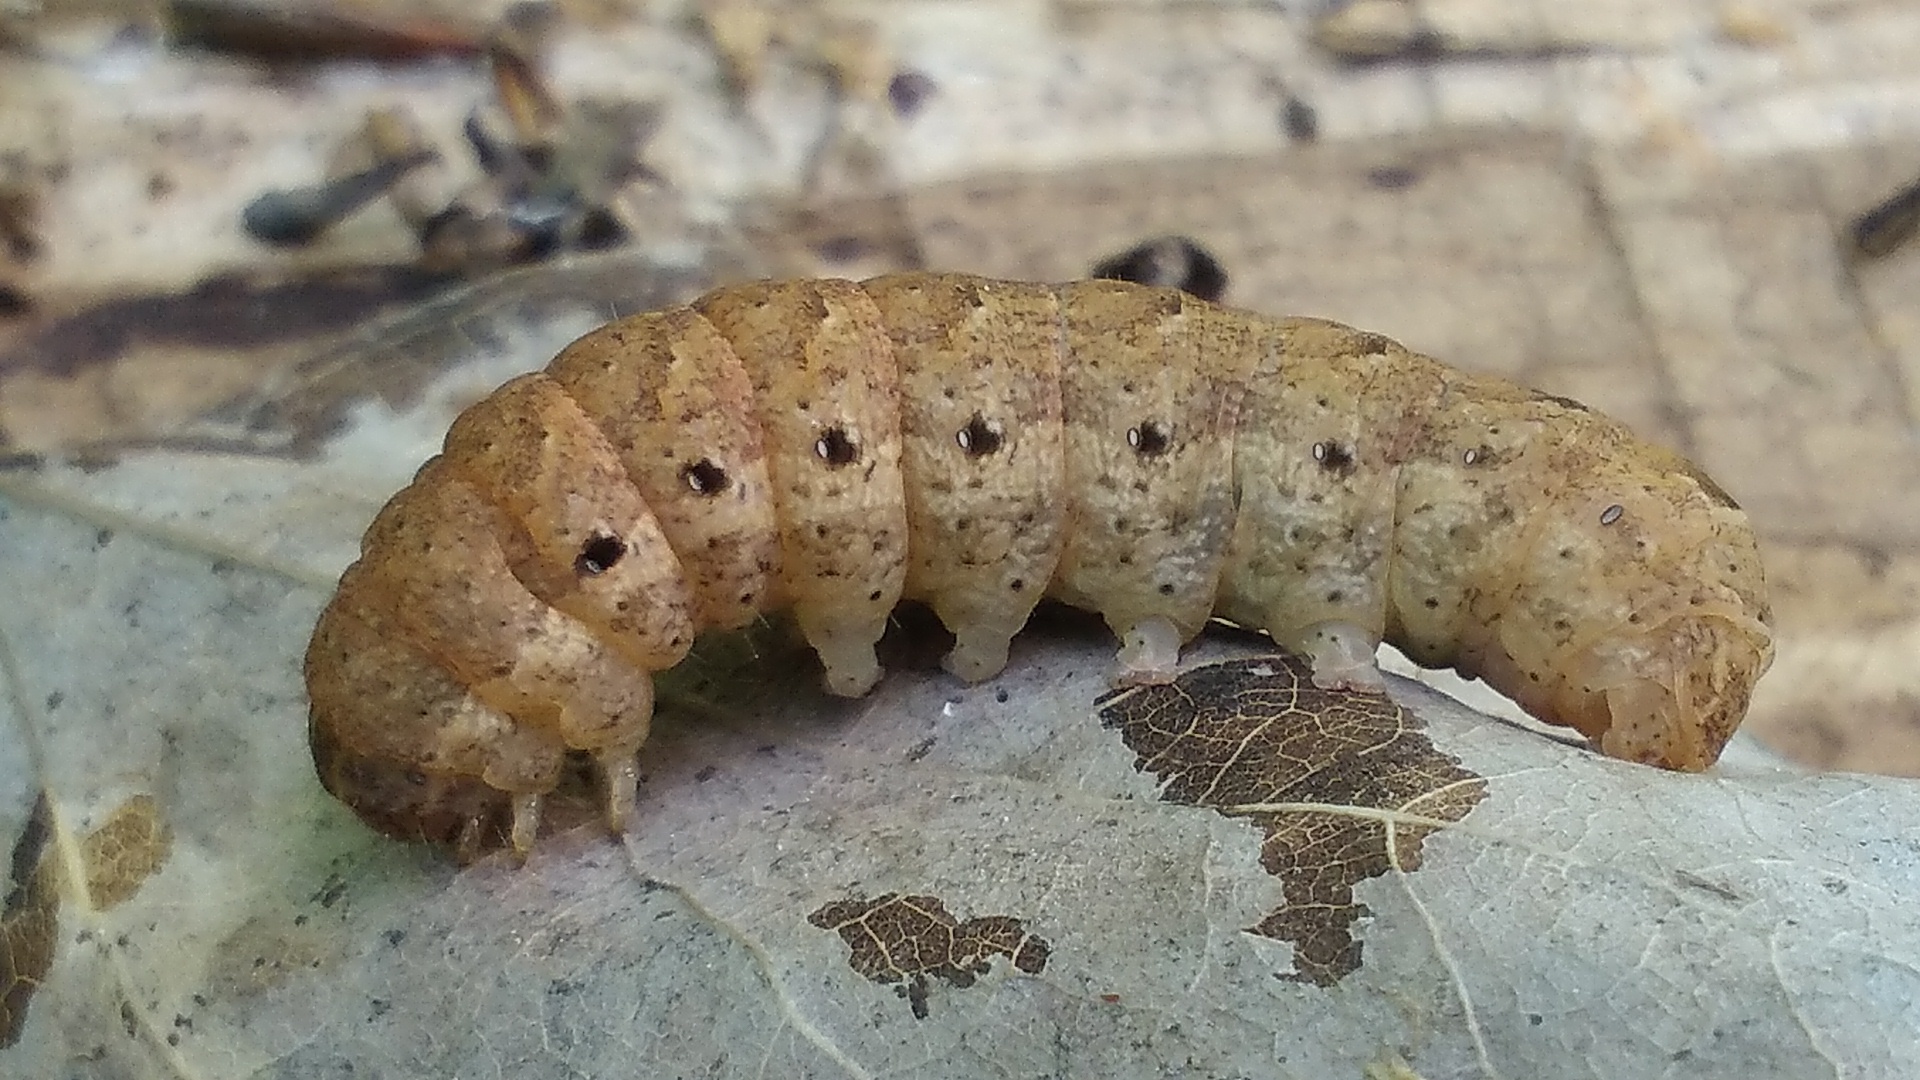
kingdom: Animalia
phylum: Arthropoda
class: Insecta
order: Lepidoptera
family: Noctuidae
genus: Noctua
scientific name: Noctua fimbriata
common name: Broad-bordered yellow underwing
